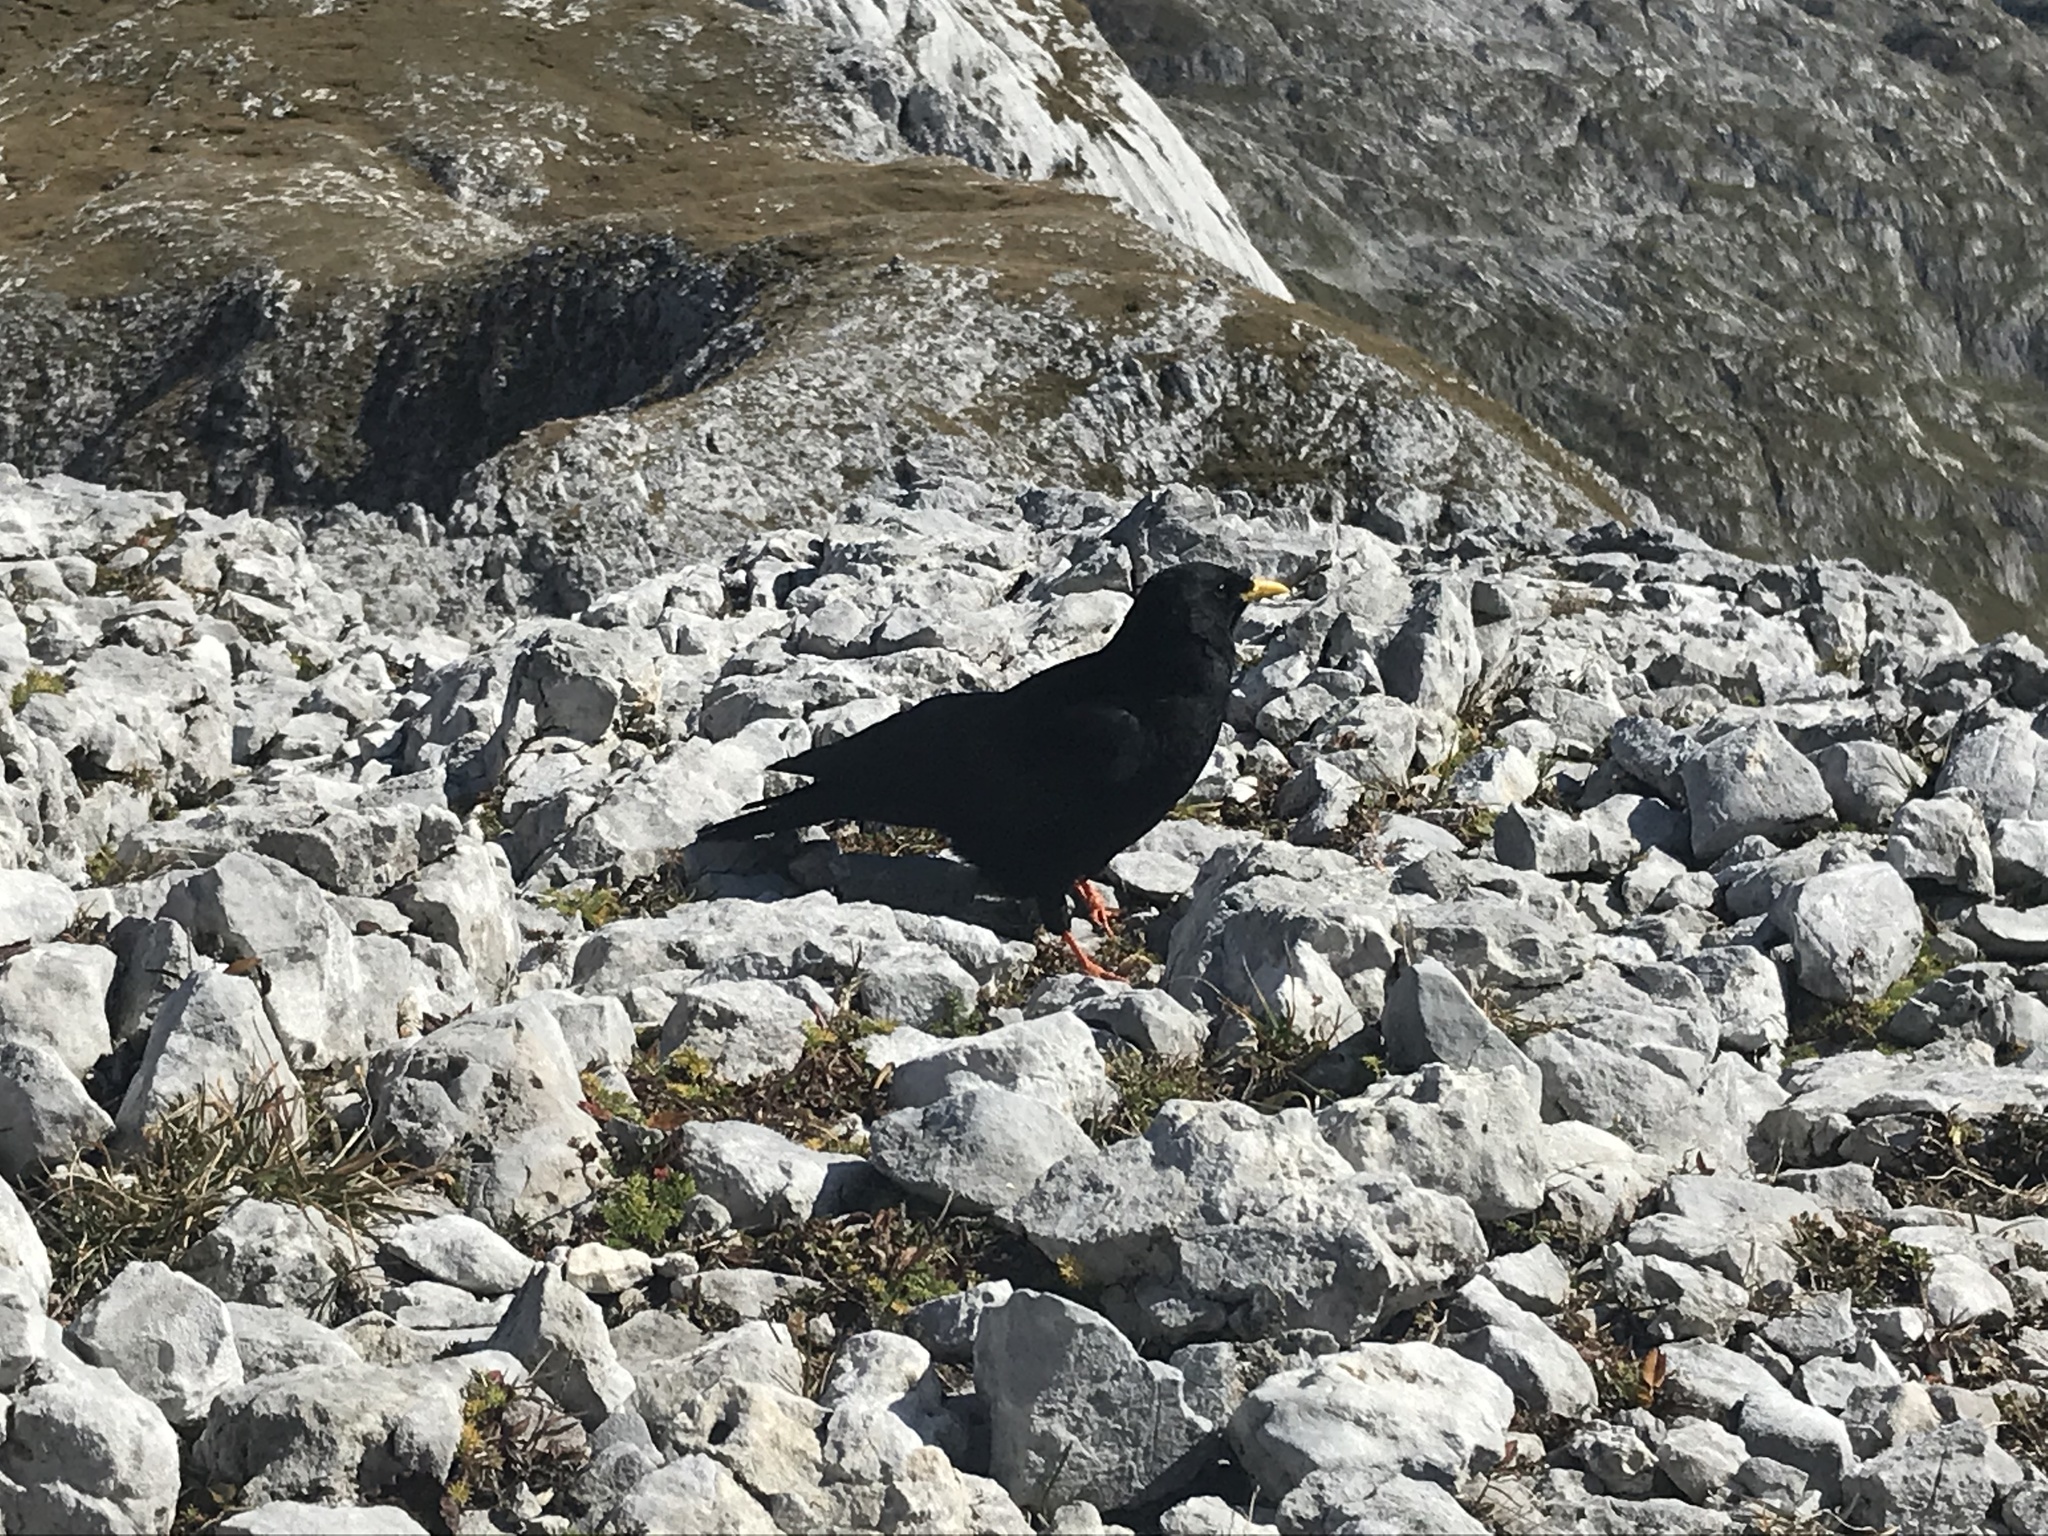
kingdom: Animalia
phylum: Chordata
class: Aves
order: Passeriformes
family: Corvidae
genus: Pyrrhocorax
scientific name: Pyrrhocorax graculus
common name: Alpine chough
